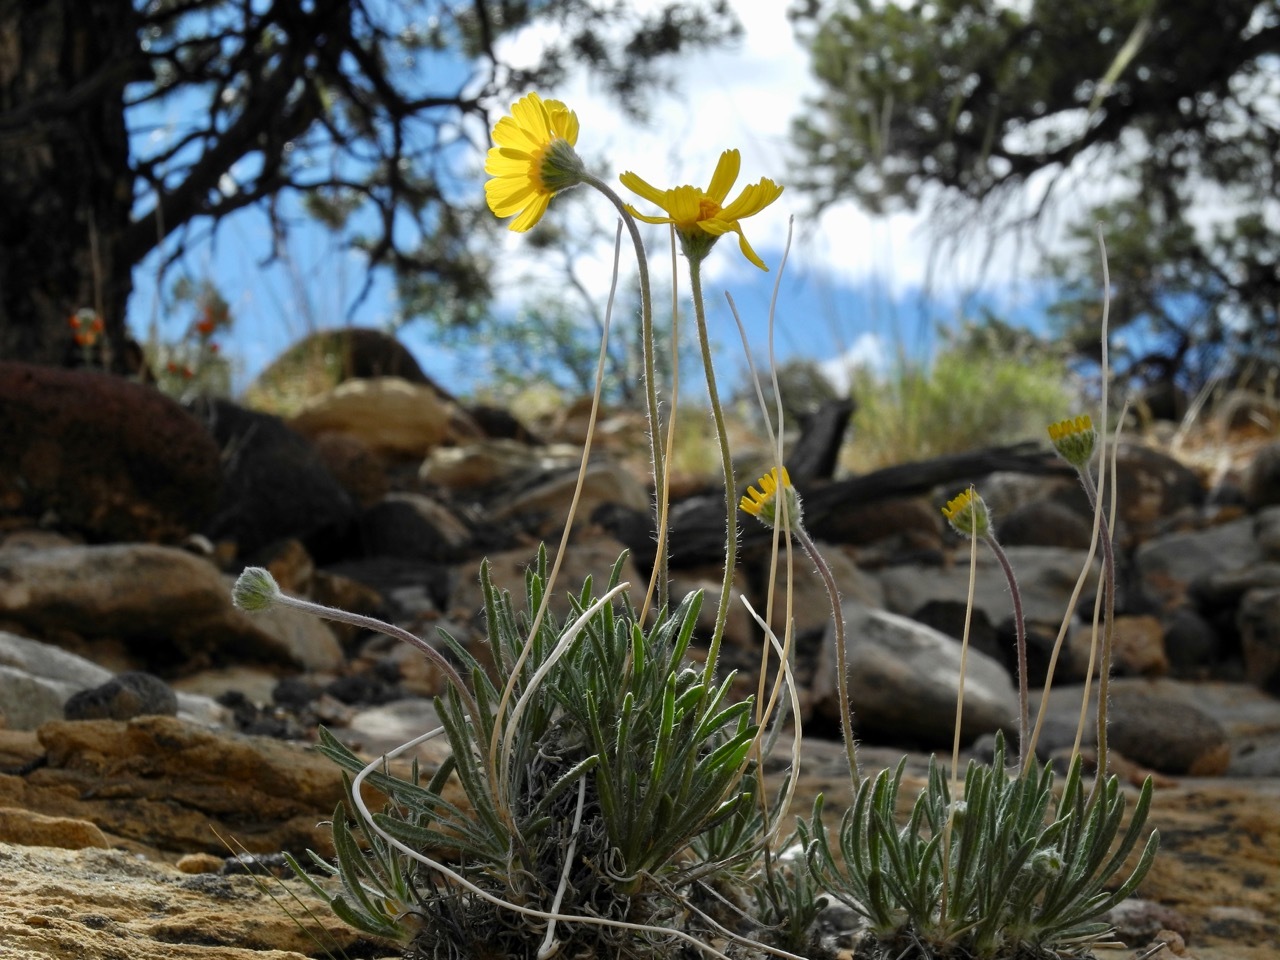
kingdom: Plantae
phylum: Tracheophyta
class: Magnoliopsida
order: Asterales
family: Asteraceae
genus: Tetraneuris
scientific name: Tetraneuris acaulis
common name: Butte marigold
